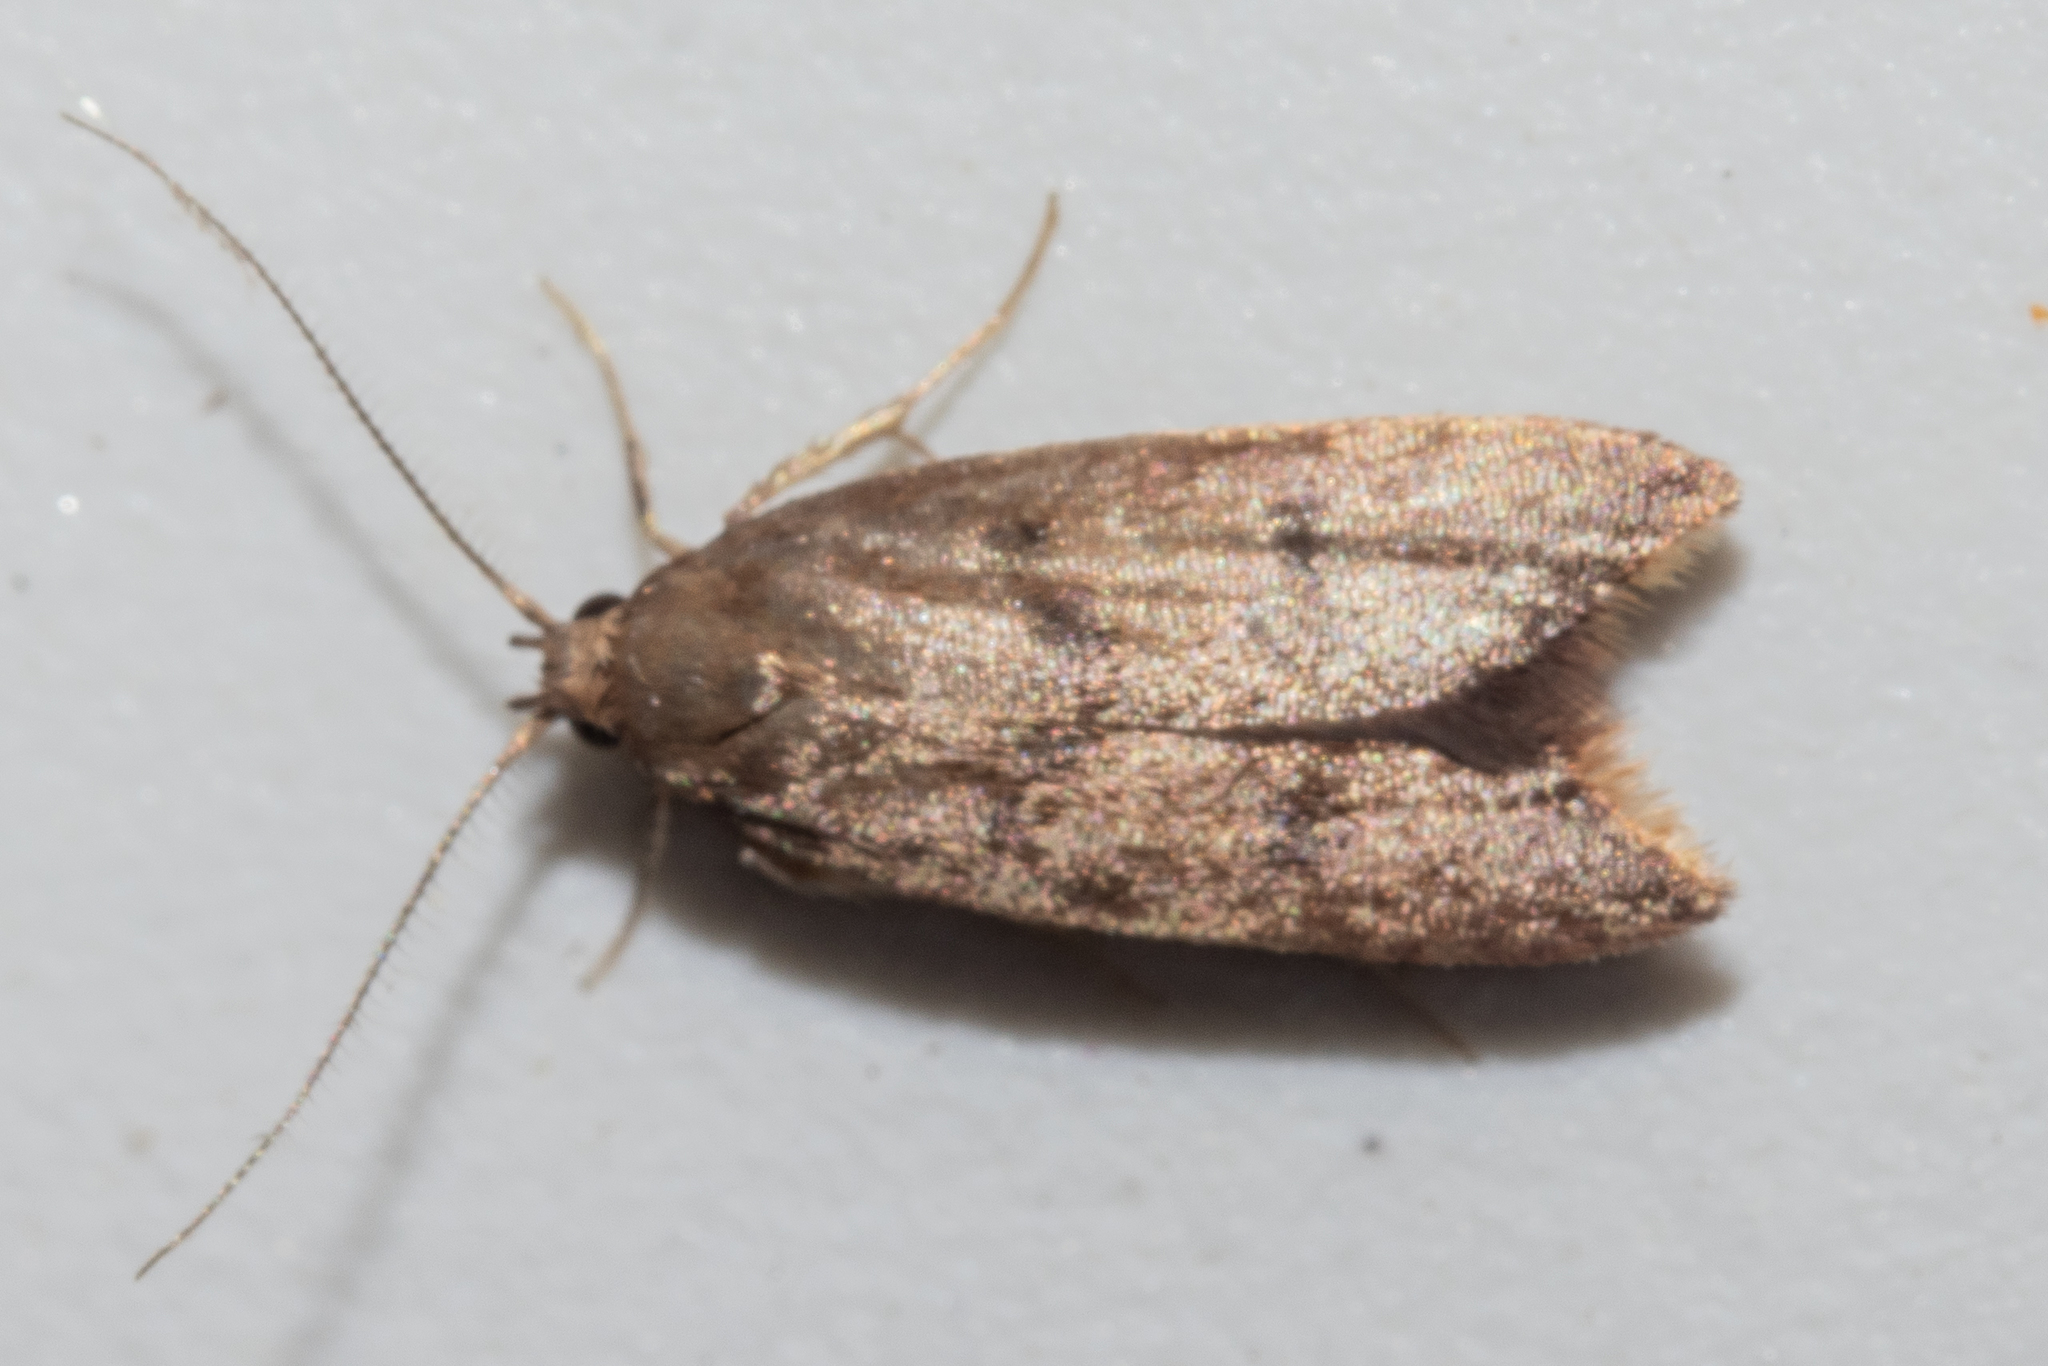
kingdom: Animalia
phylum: Arthropoda
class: Insecta
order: Lepidoptera
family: Oecophoridae
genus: Tachystola
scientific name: Tachystola acroxantha
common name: Ruddy streak
